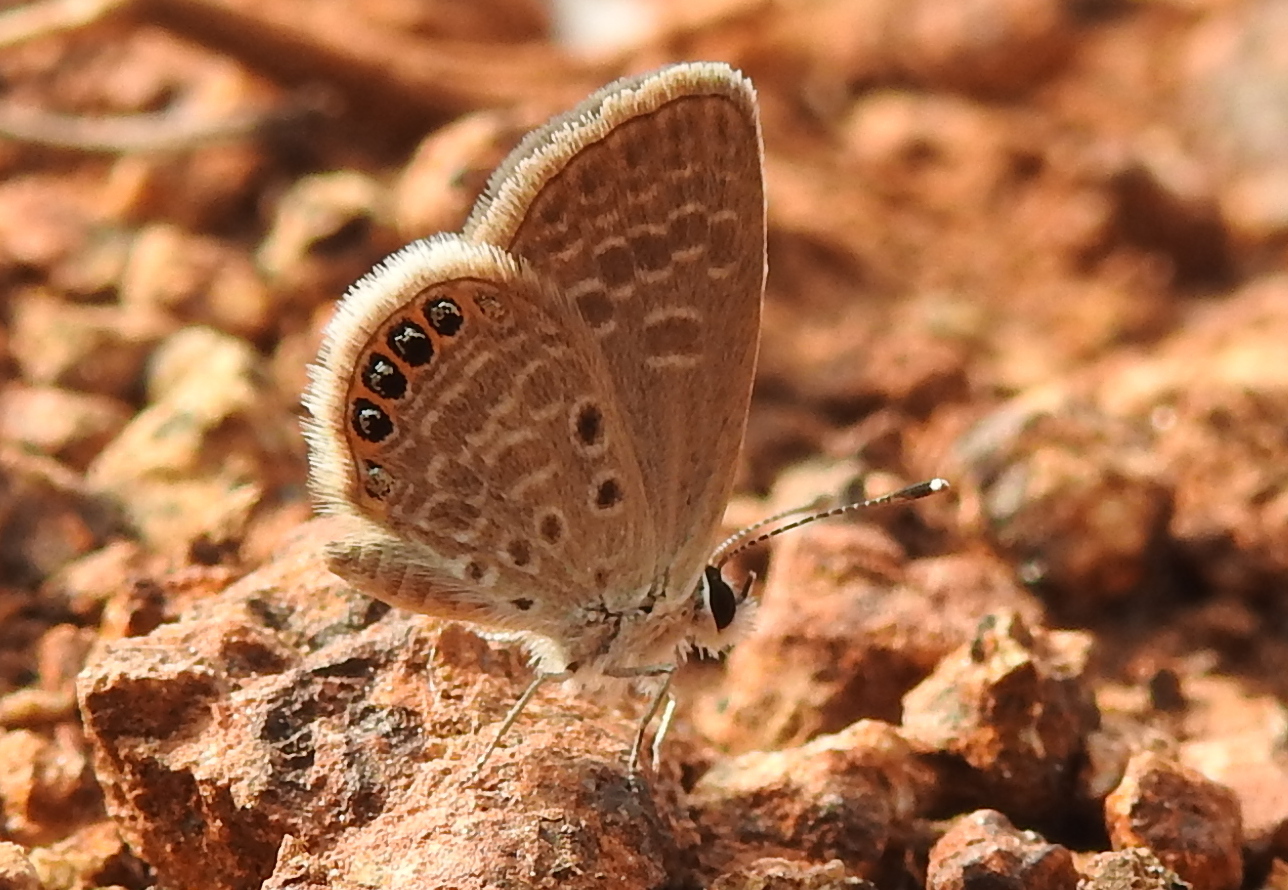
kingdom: Animalia
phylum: Arthropoda
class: Insecta
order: Lepidoptera
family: Lycaenidae
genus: Freyeria
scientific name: Freyeria putli
